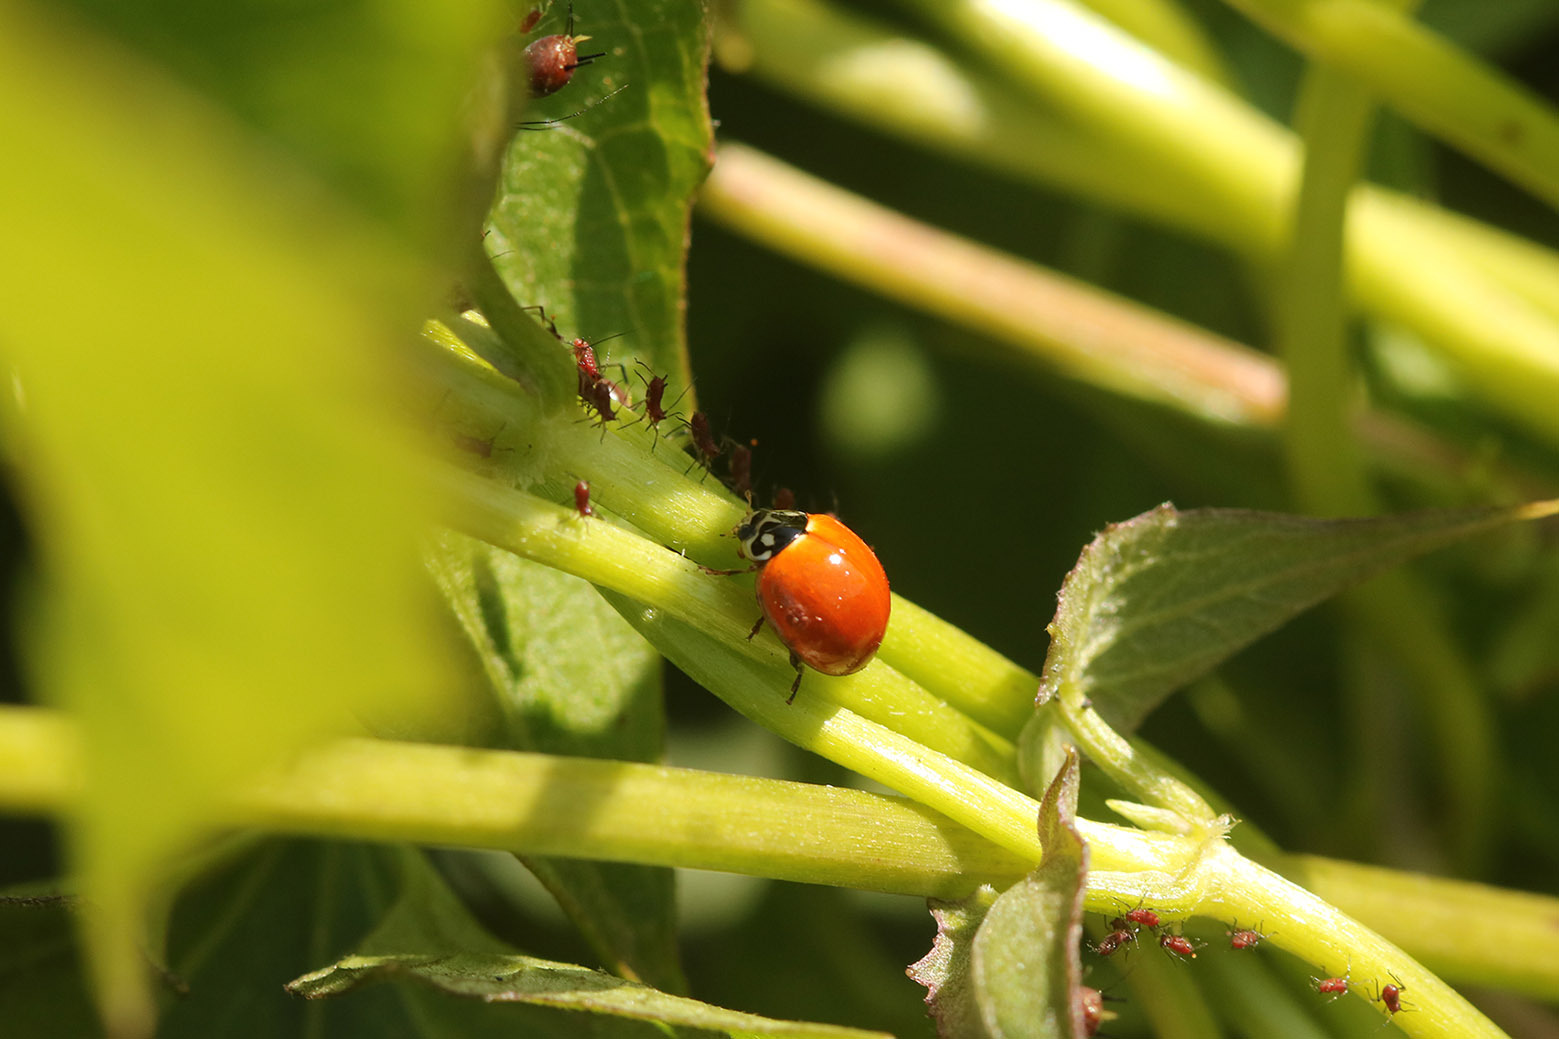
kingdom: Animalia
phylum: Arthropoda
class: Insecta
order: Coleoptera
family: Coccinellidae
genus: Cycloneda
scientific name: Cycloneda sanguinea
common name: Ladybird beetle
